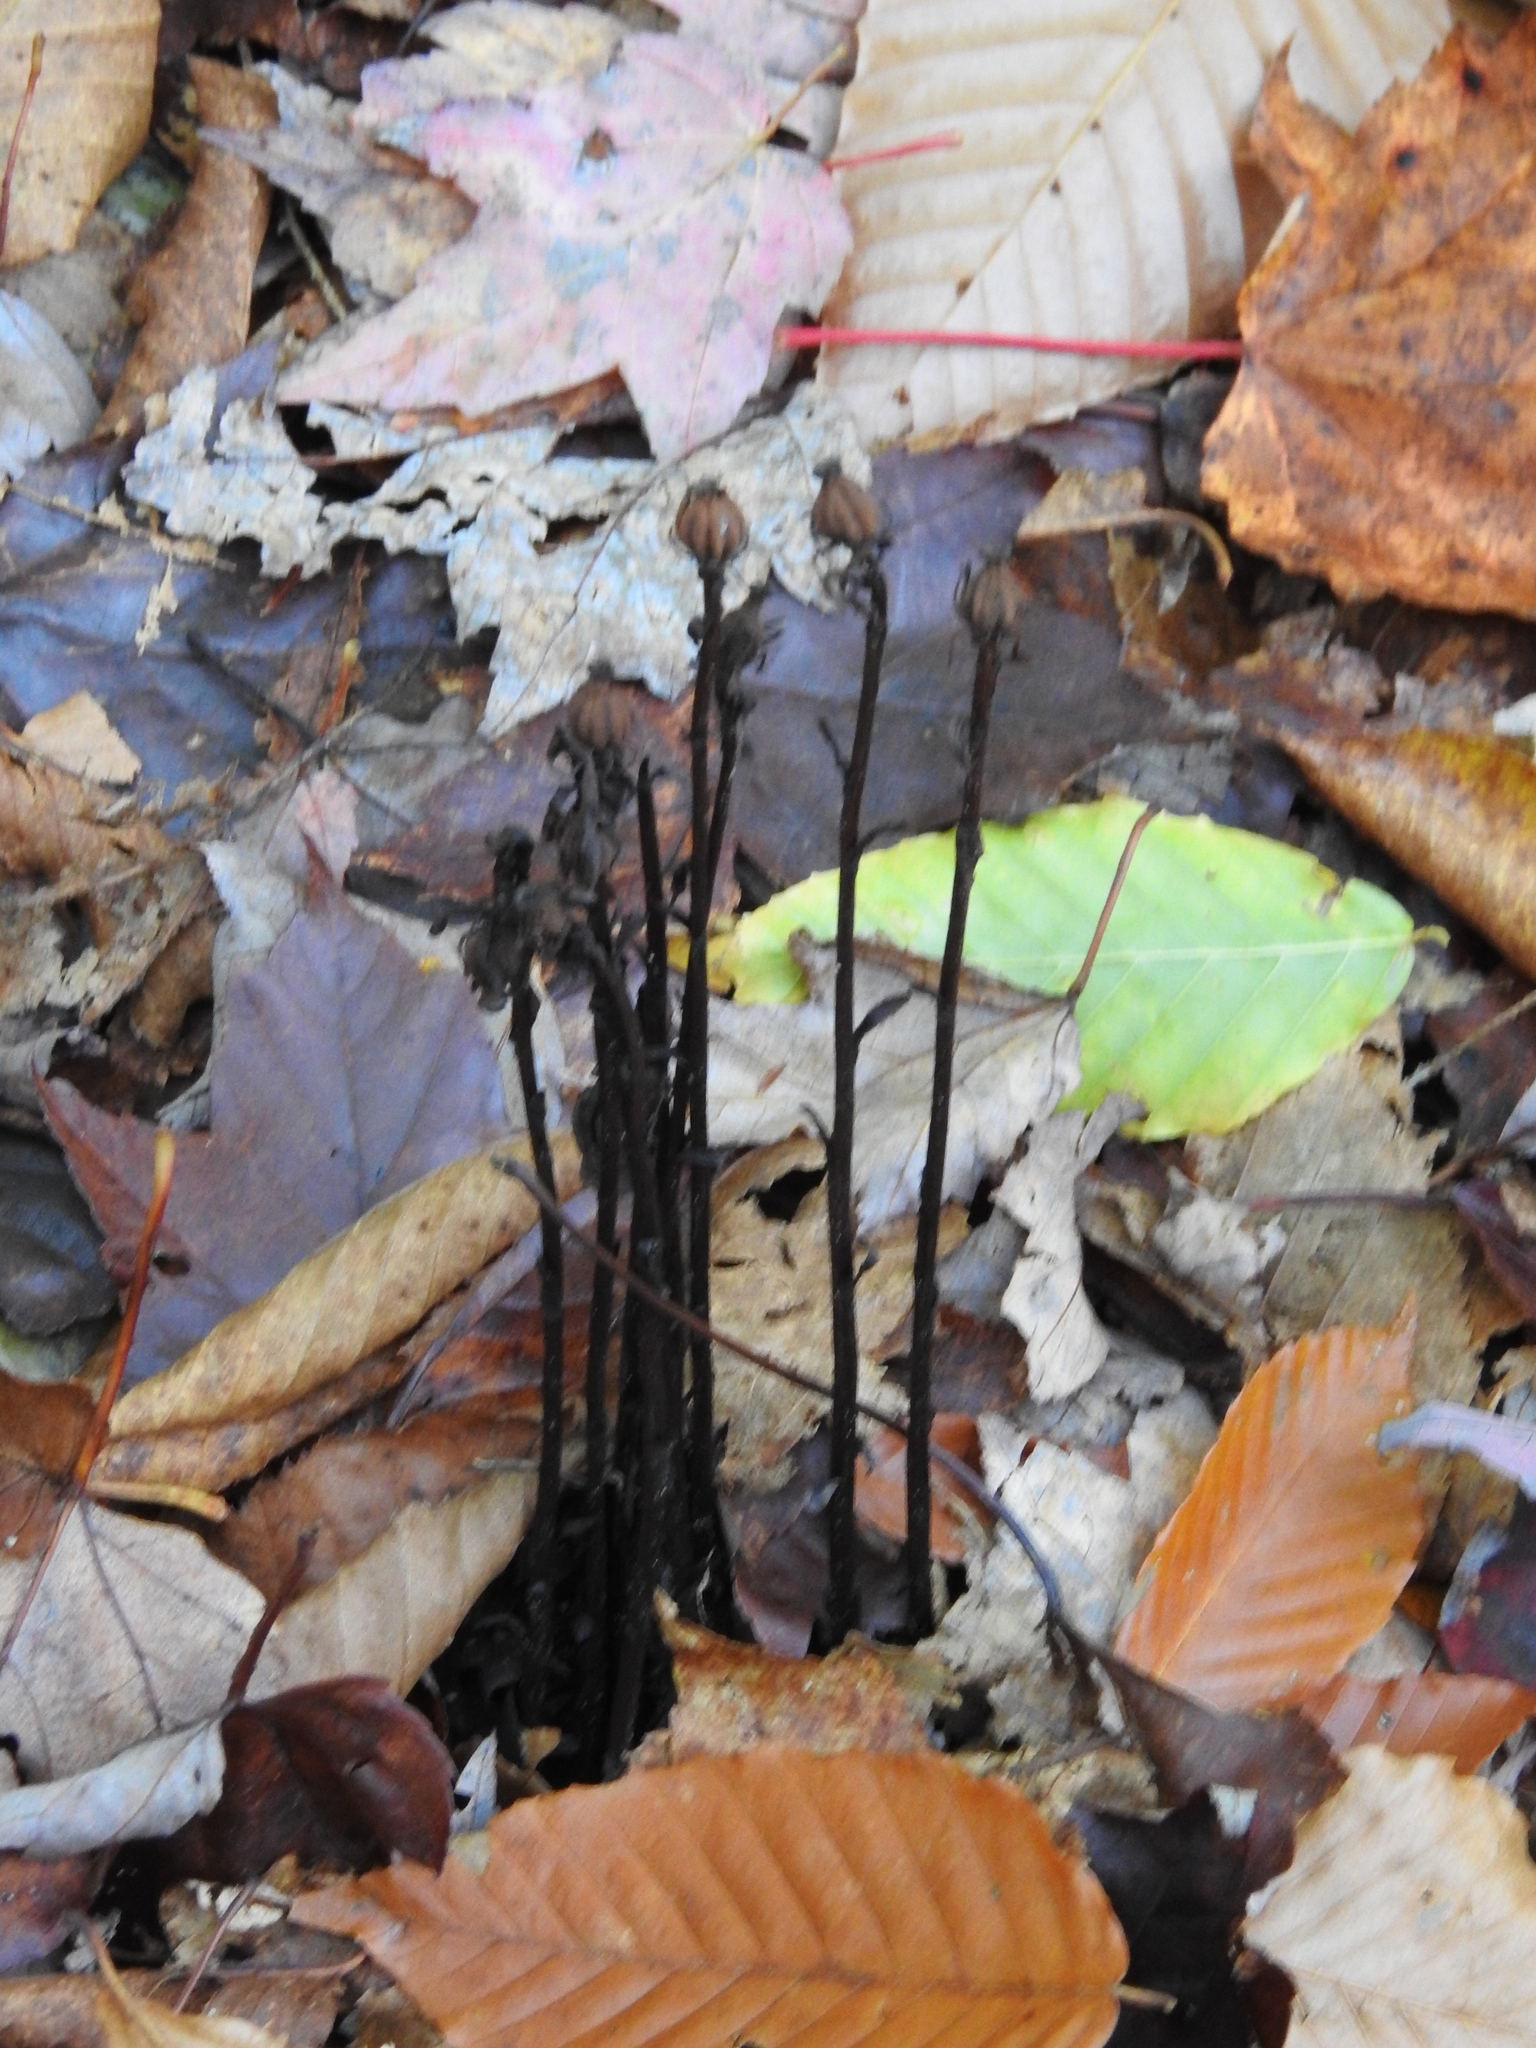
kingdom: Plantae
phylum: Tracheophyta
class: Magnoliopsida
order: Ericales
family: Ericaceae
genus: Monotropa
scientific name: Monotropa uniflora
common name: Convulsion root
